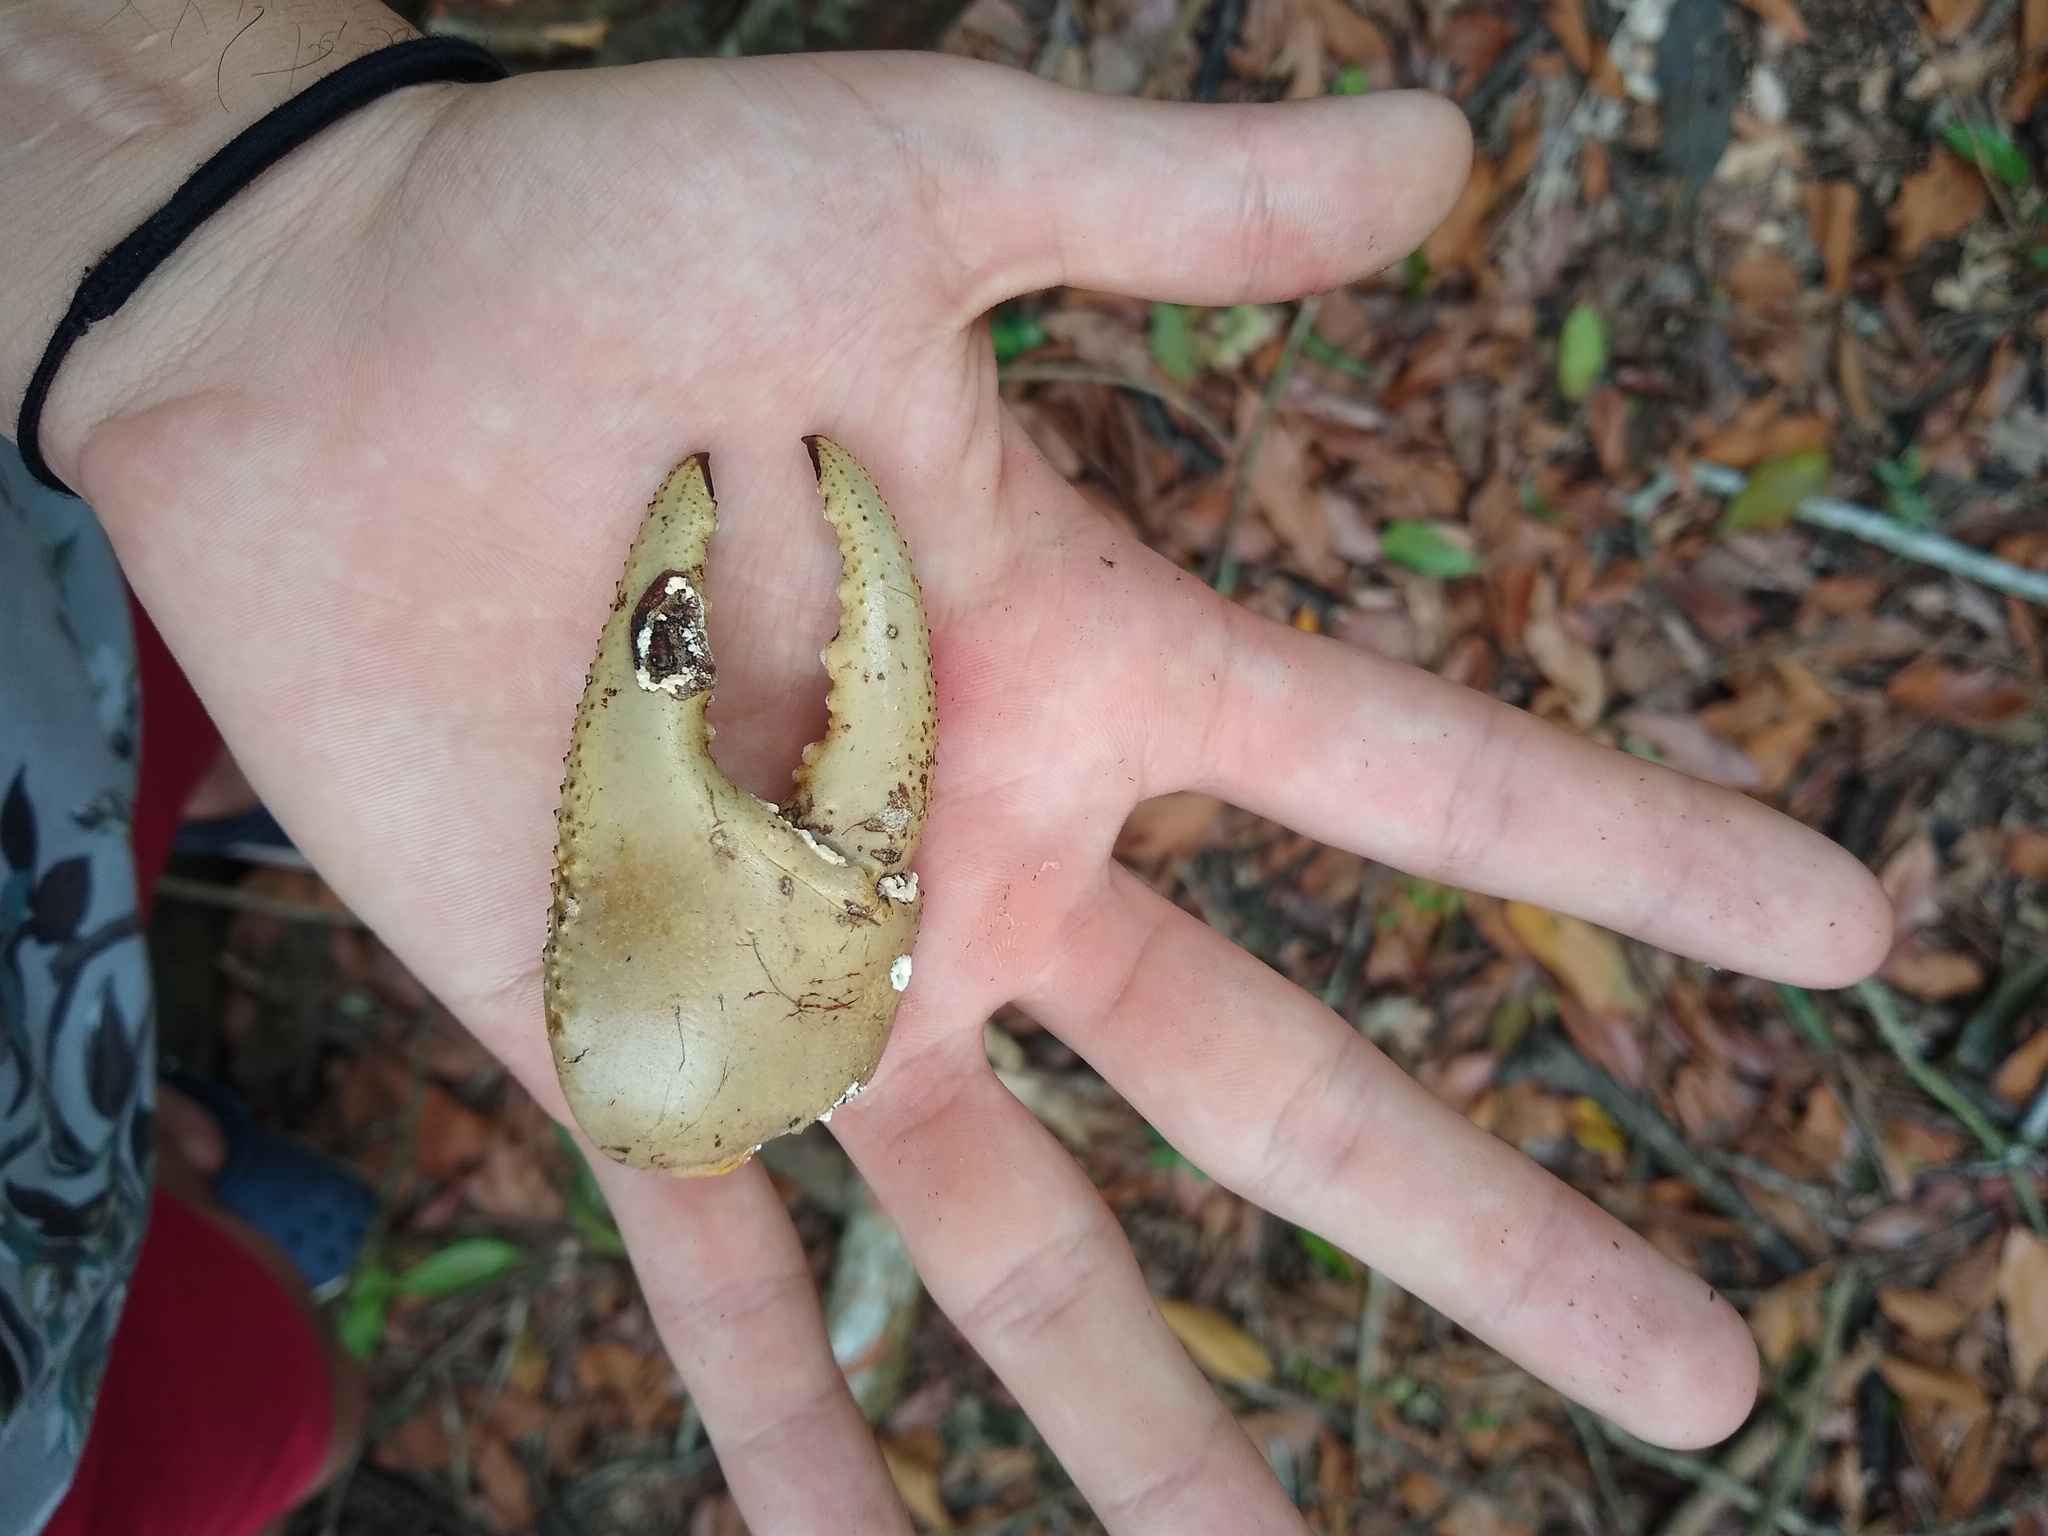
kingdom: Animalia
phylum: Arthropoda
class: Malacostraca
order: Decapoda
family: Gecarcinidae
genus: Cardisoma
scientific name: Cardisoma crassum
